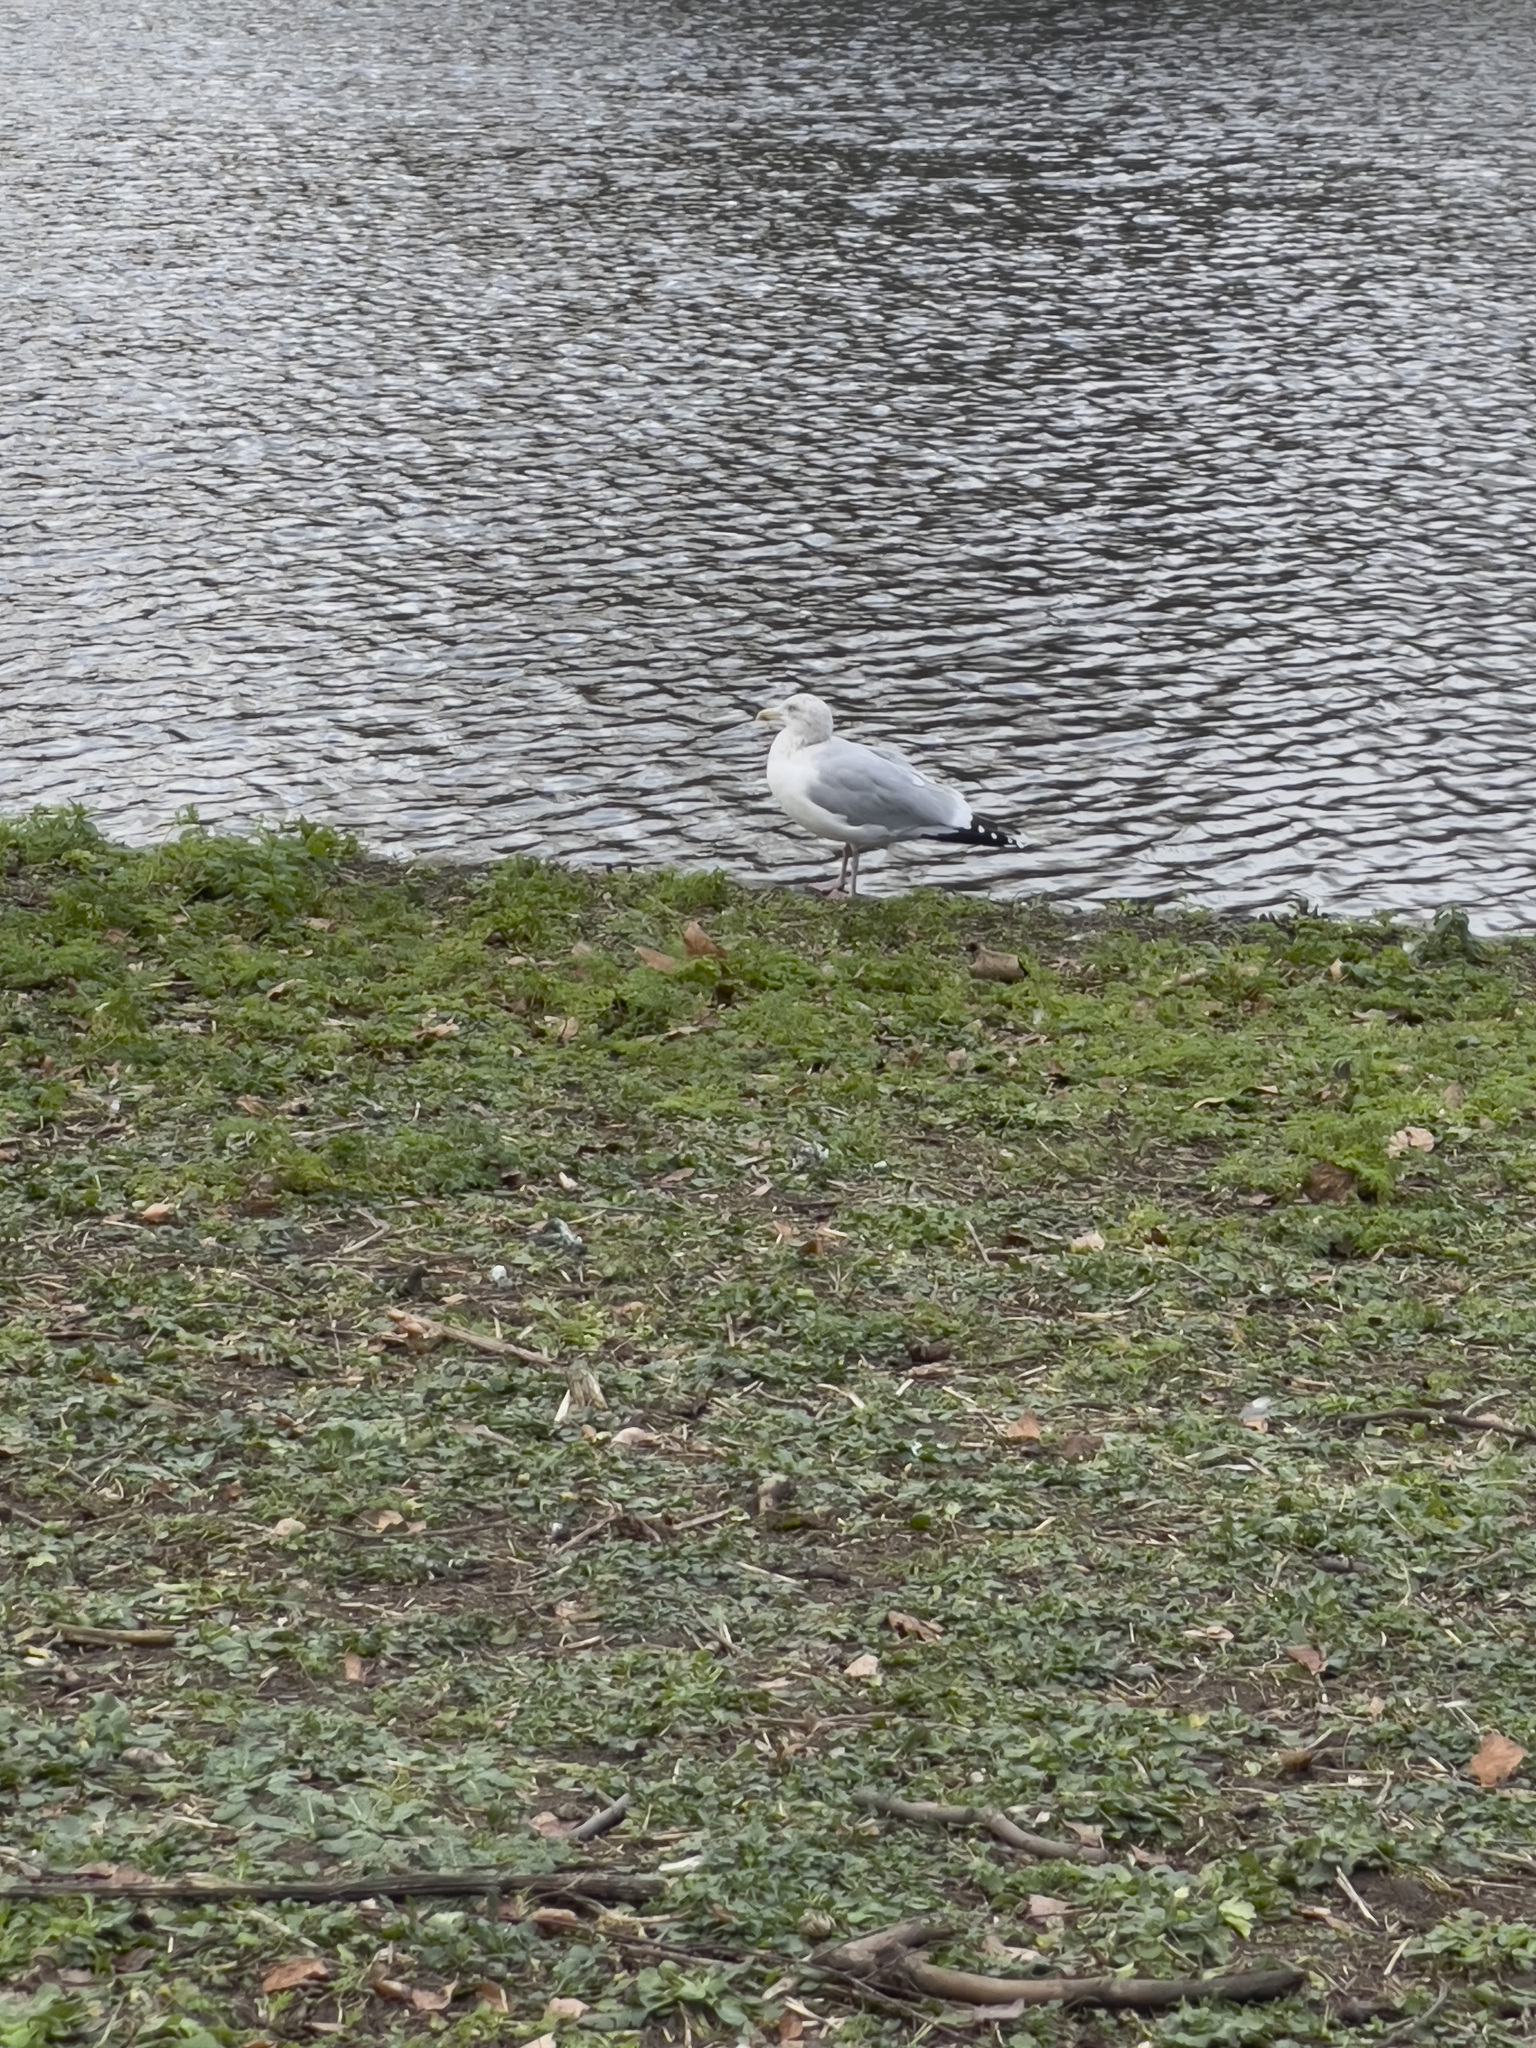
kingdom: Animalia
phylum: Chordata
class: Aves
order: Charadriiformes
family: Laridae
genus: Larus
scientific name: Larus argentatus
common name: Herring gull
